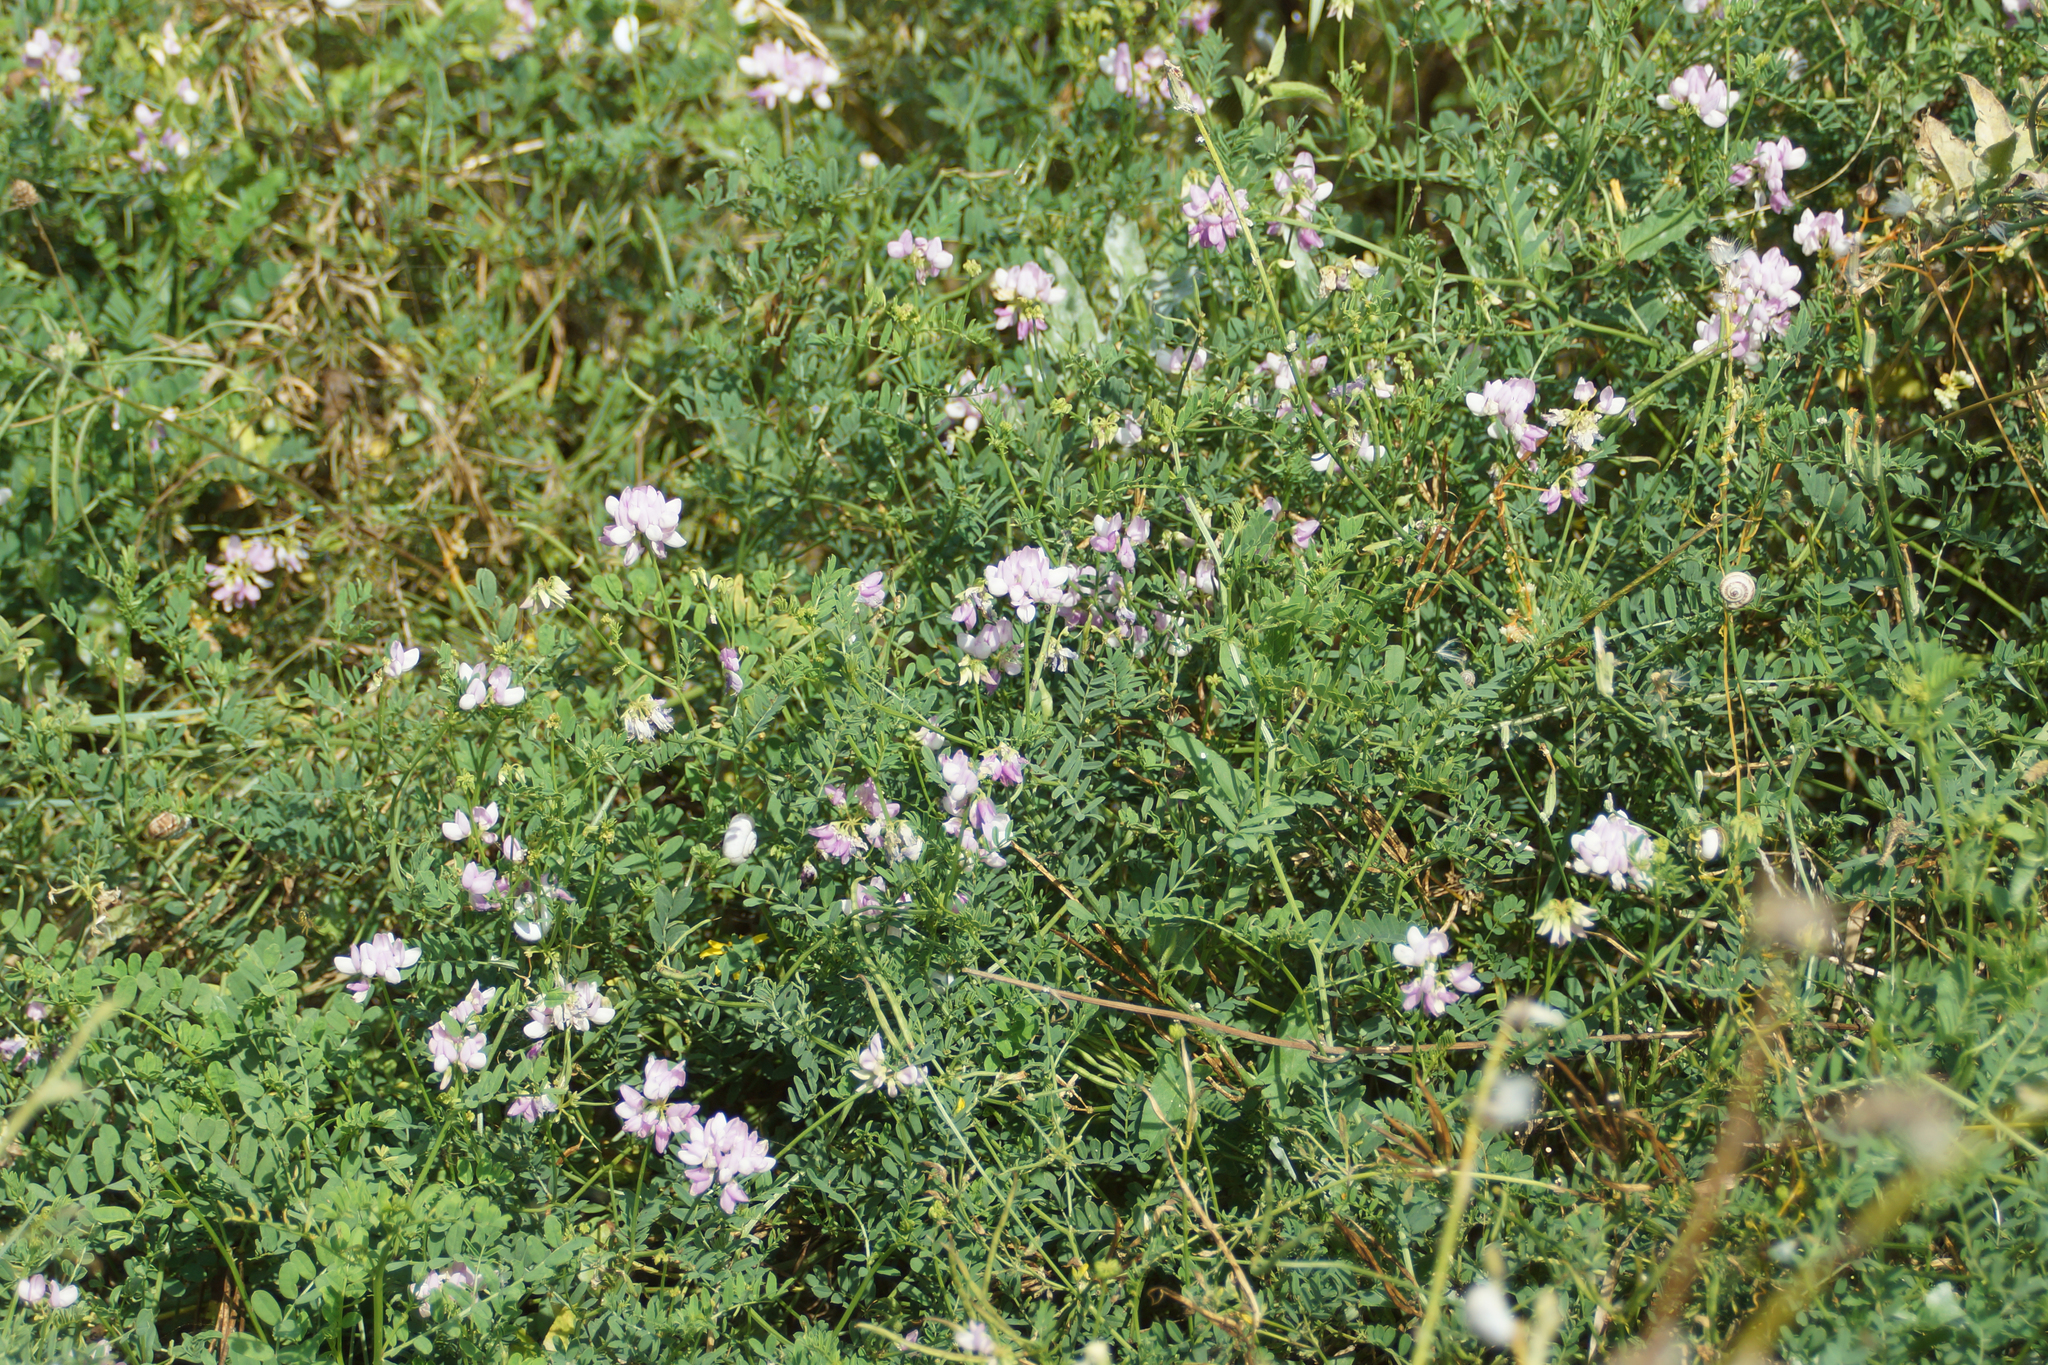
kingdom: Plantae
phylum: Tracheophyta
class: Magnoliopsida
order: Fabales
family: Fabaceae
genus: Coronilla
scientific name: Coronilla varia
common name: Crownvetch
